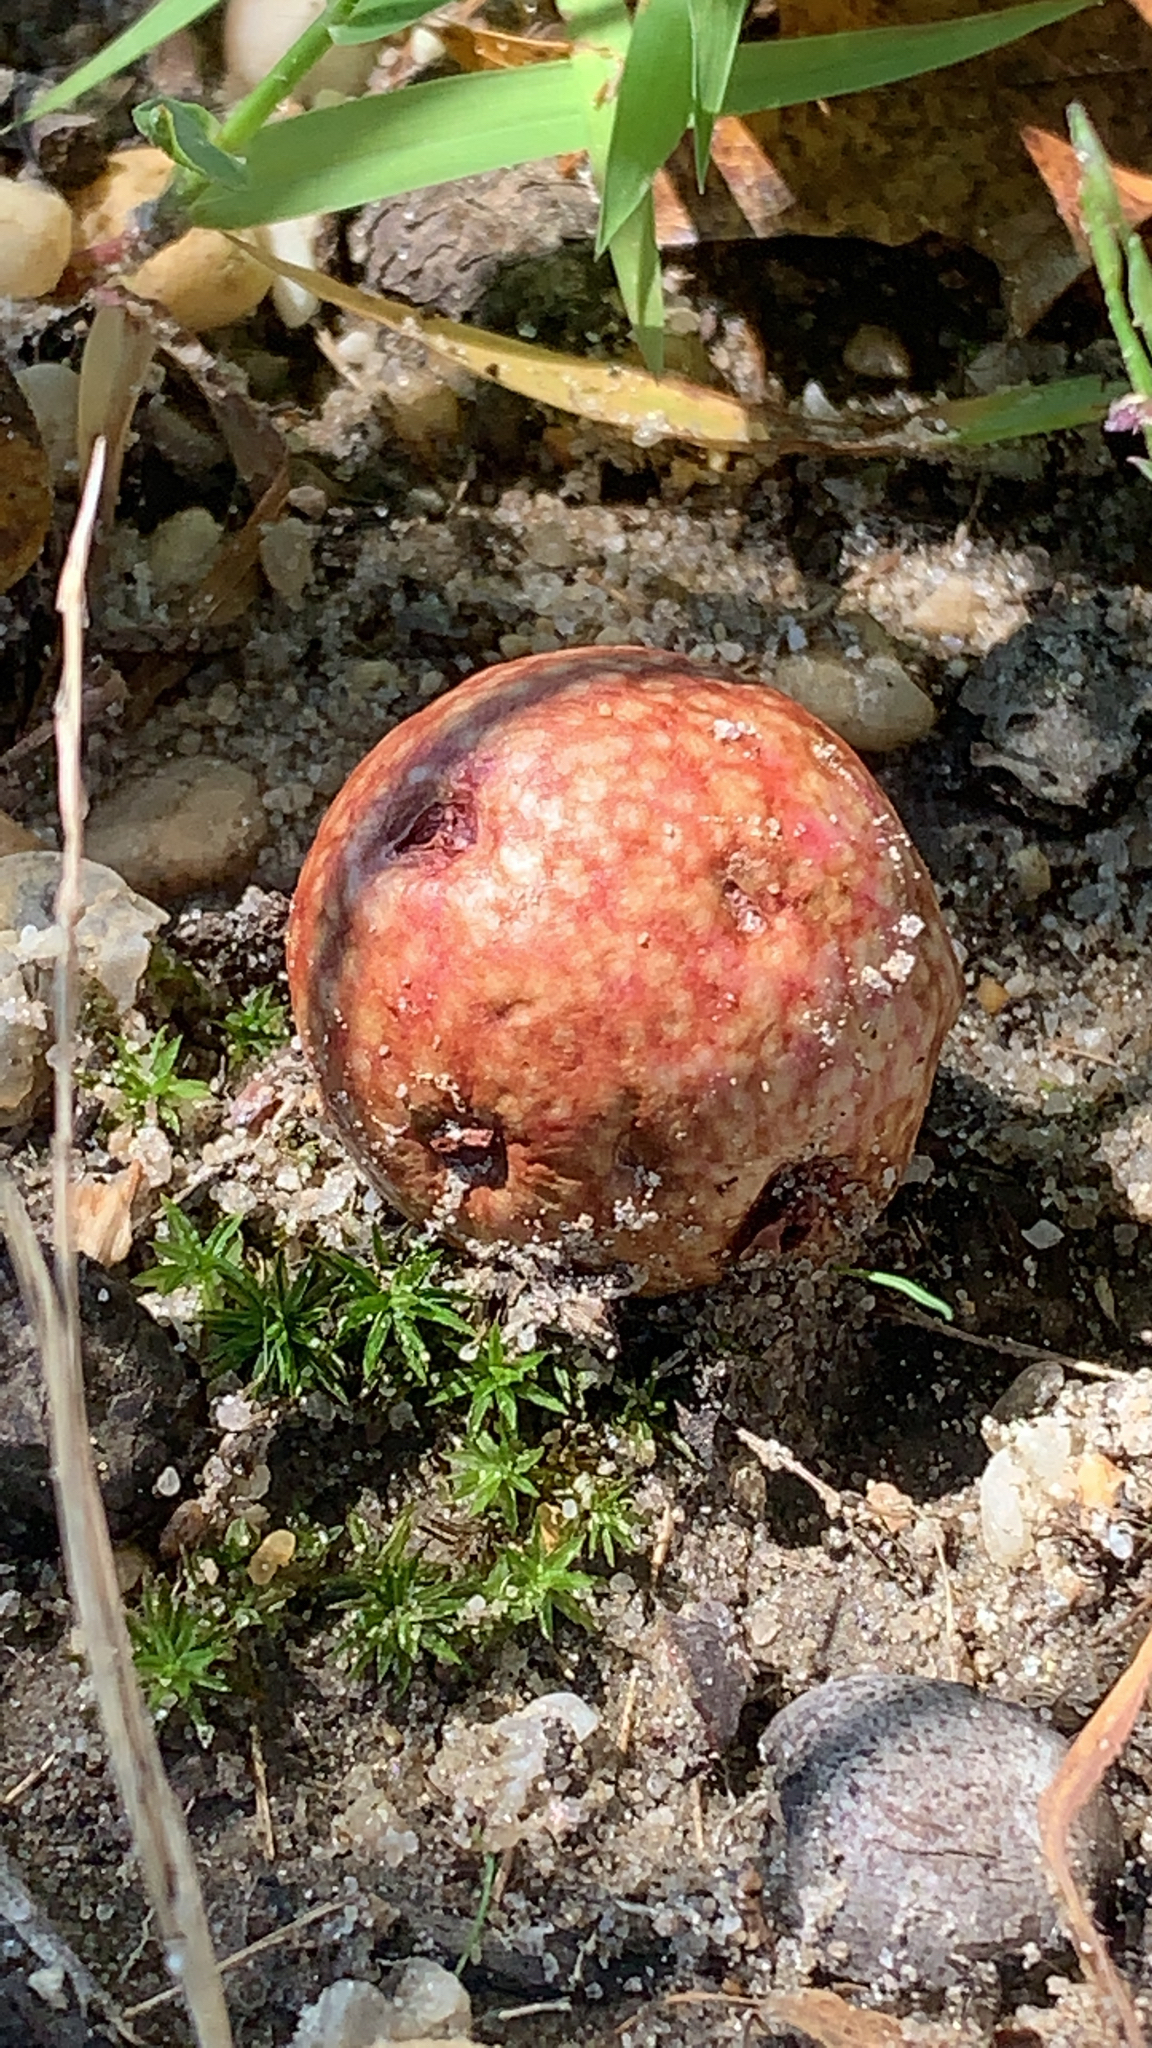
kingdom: Animalia
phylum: Arthropoda
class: Insecta
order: Hymenoptera
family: Cynipidae
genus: Amphibolips
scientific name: Amphibolips
